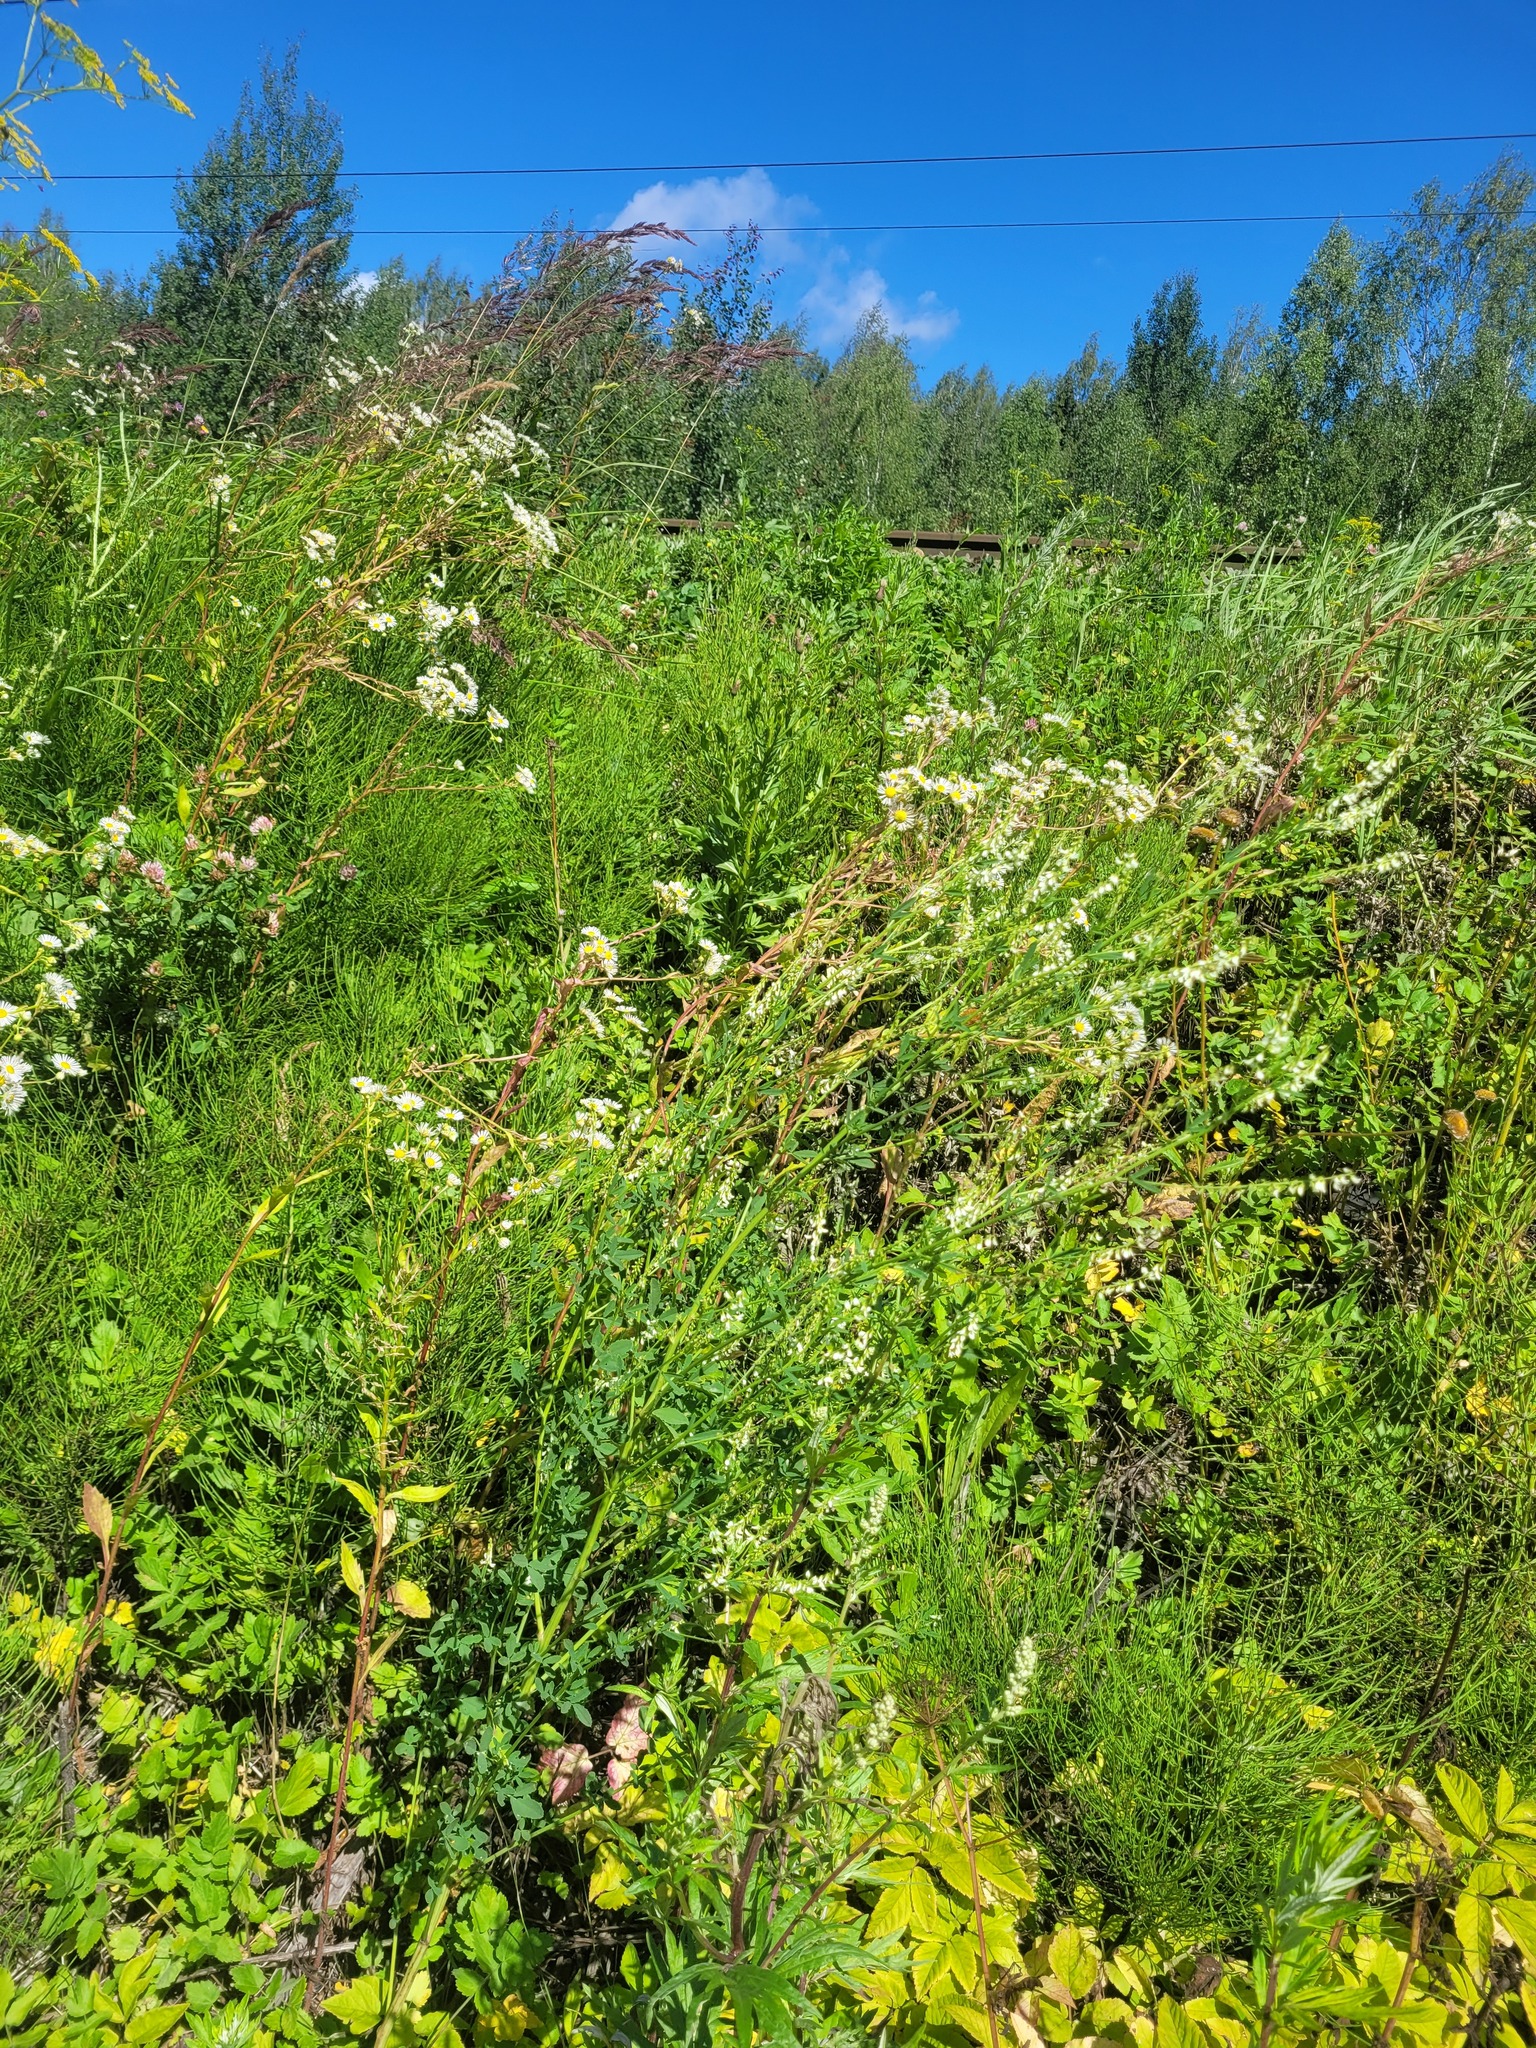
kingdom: Plantae
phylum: Tracheophyta
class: Magnoliopsida
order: Fabales
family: Fabaceae
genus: Melilotus
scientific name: Melilotus albus
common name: White melilot
